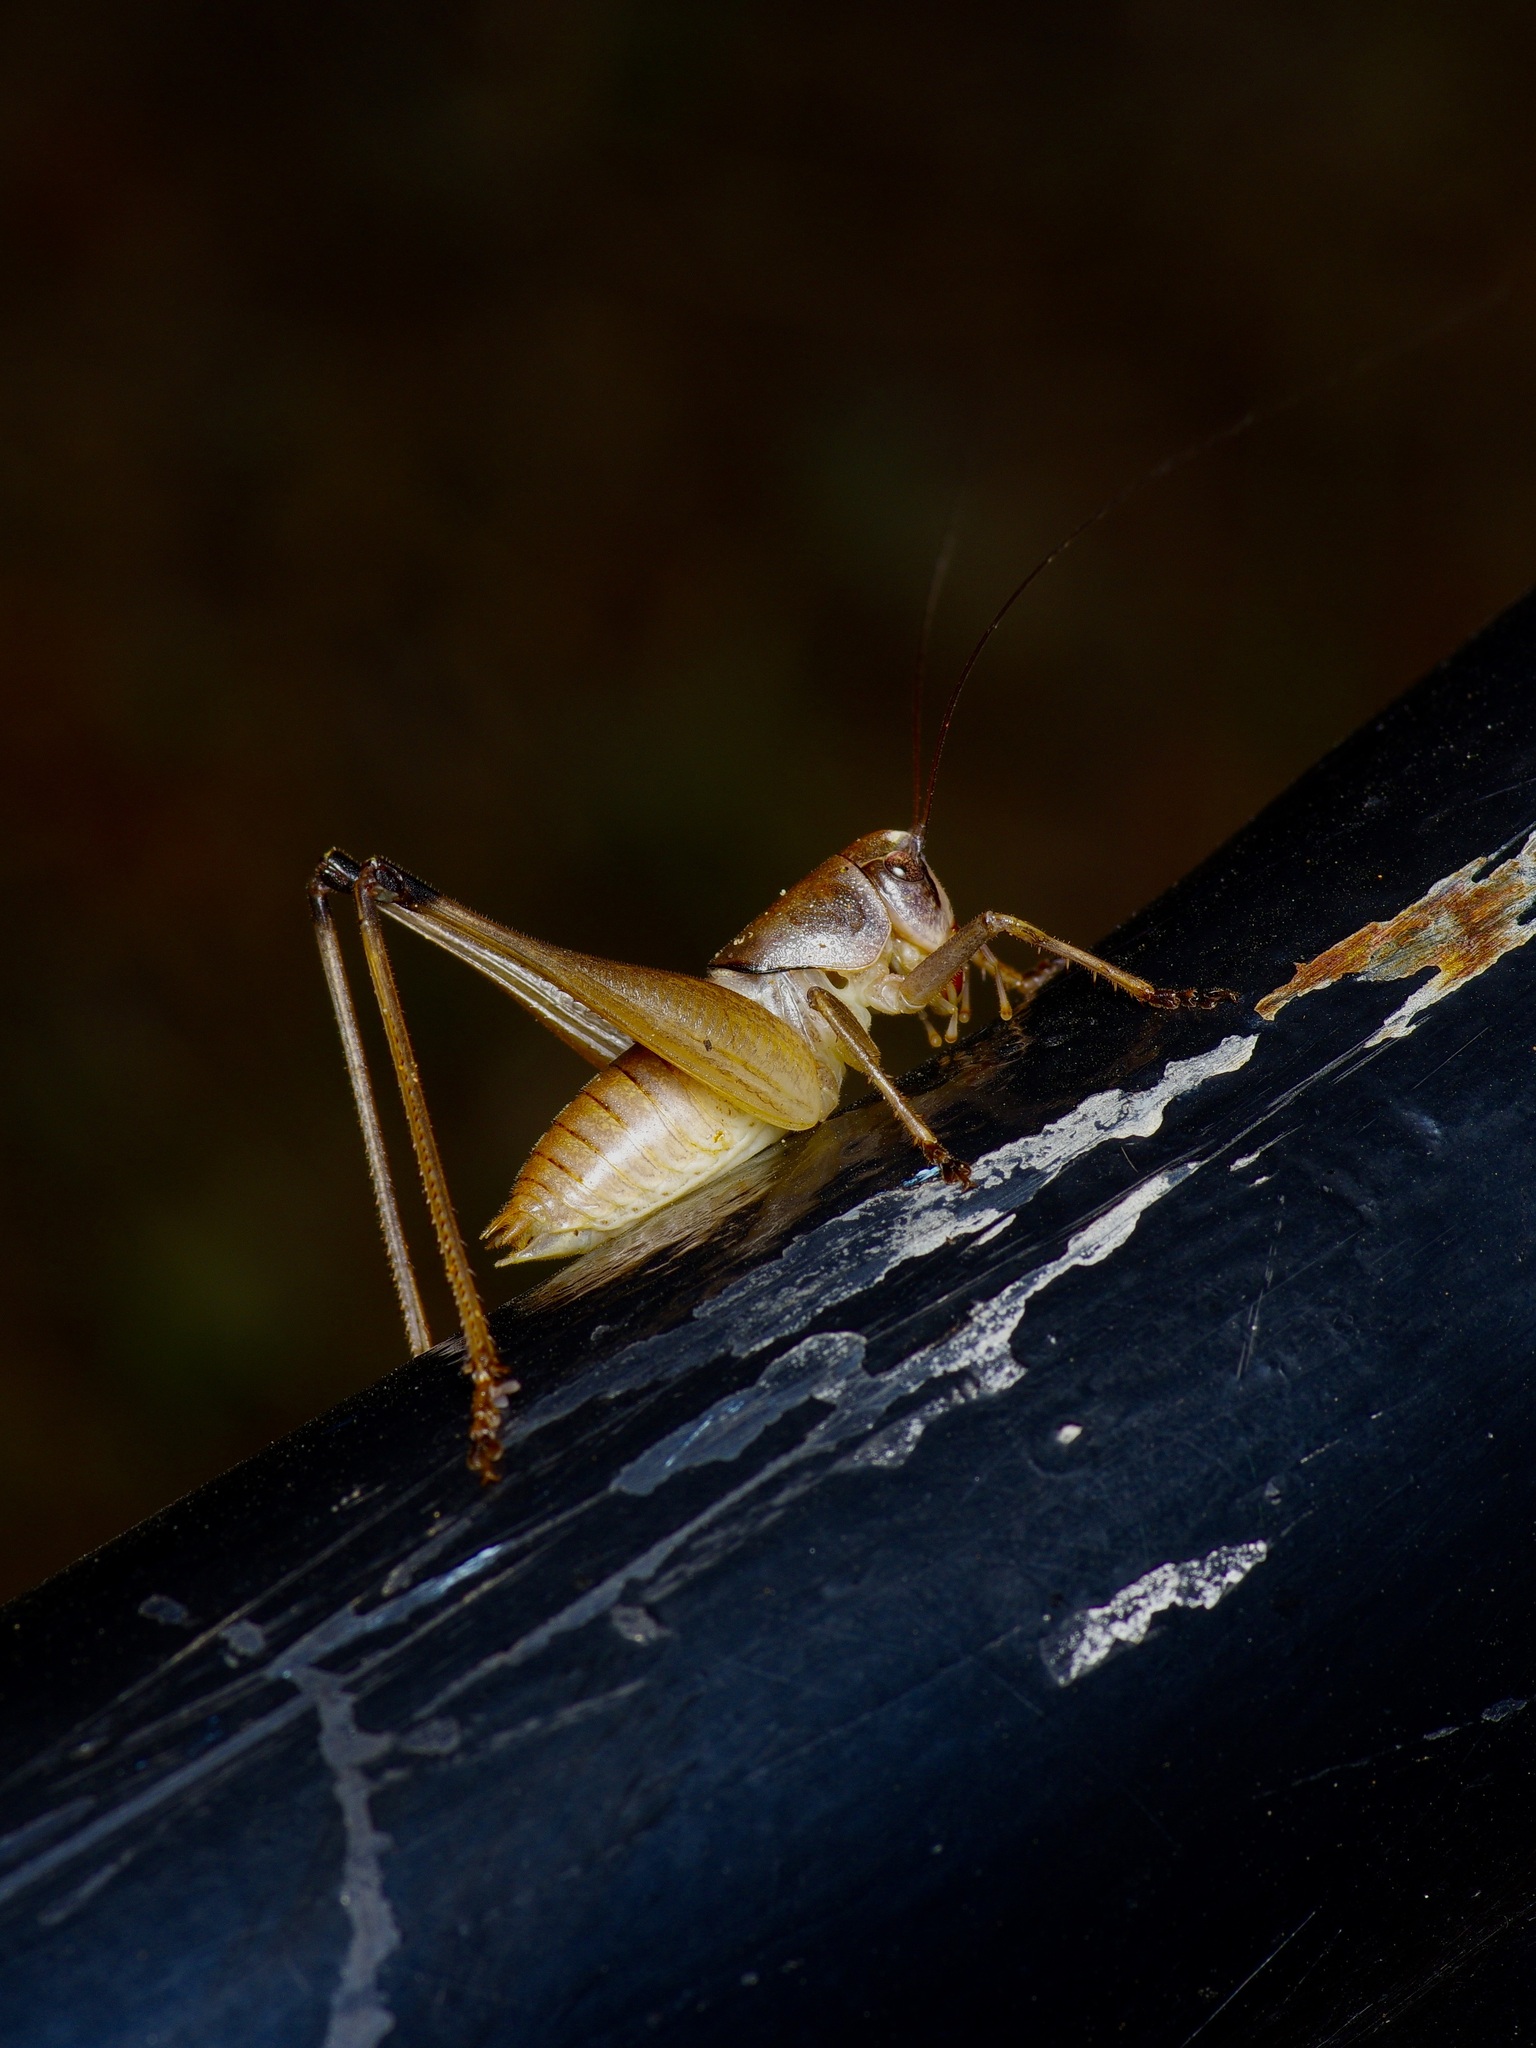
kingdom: Animalia
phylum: Arthropoda
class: Insecta
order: Orthoptera
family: Tettigoniidae
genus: Pediodectes
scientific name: Pediodectes bruneri
